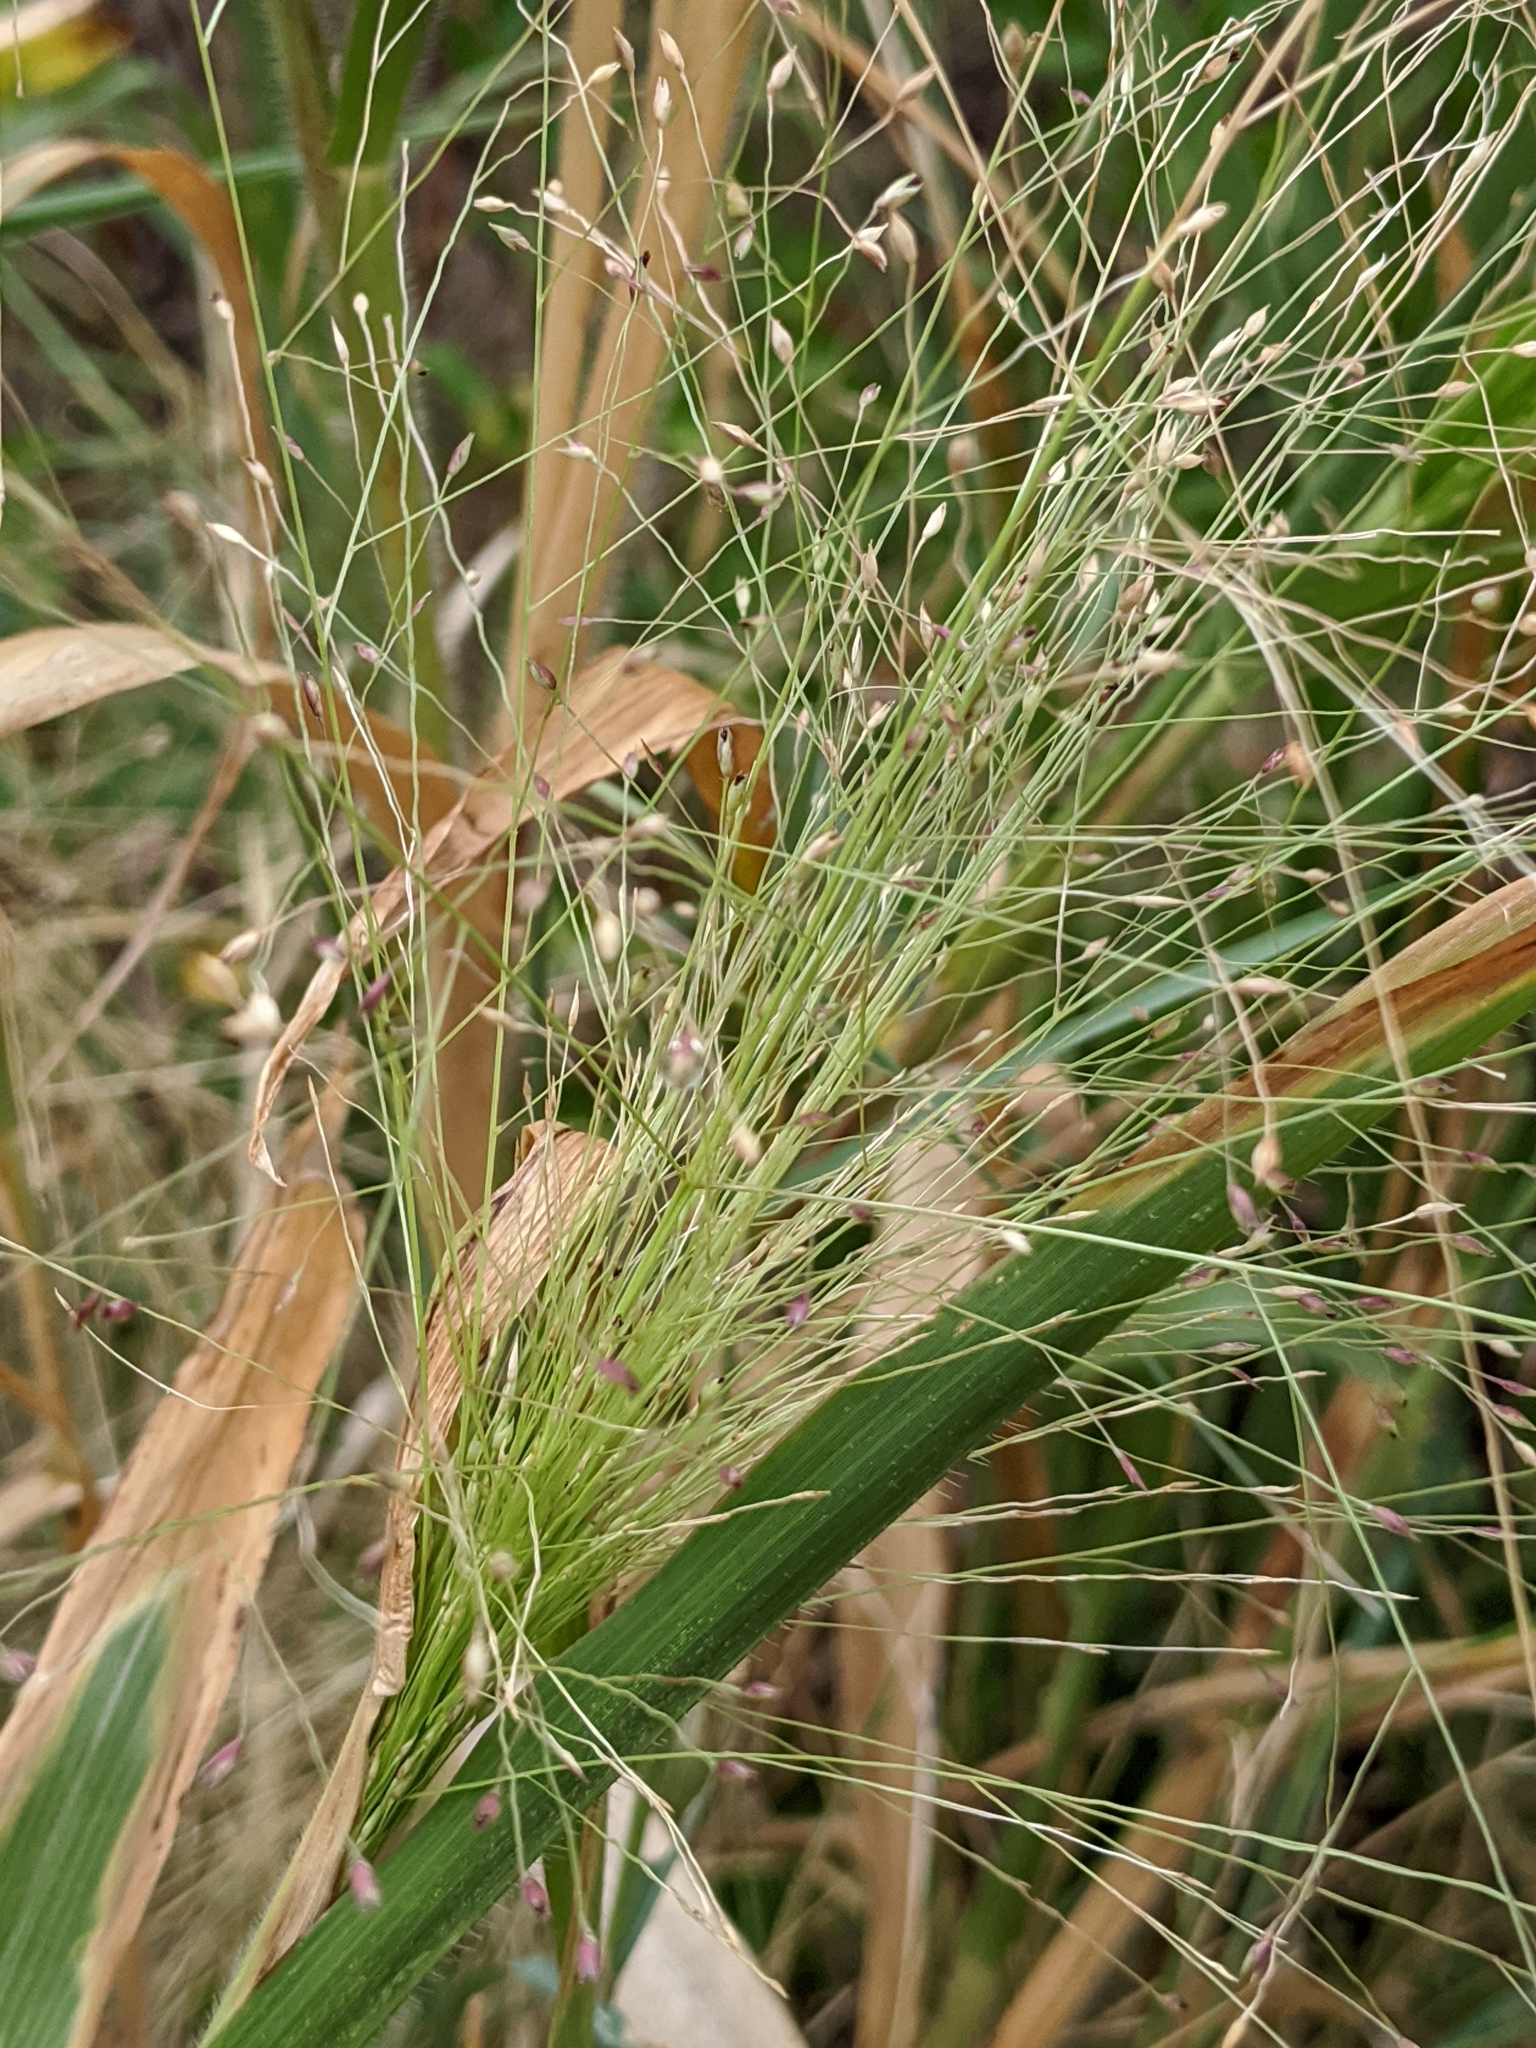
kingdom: Plantae
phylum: Tracheophyta
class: Liliopsida
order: Poales
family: Poaceae
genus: Panicum
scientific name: Panicum capillare
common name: Witch-grass
